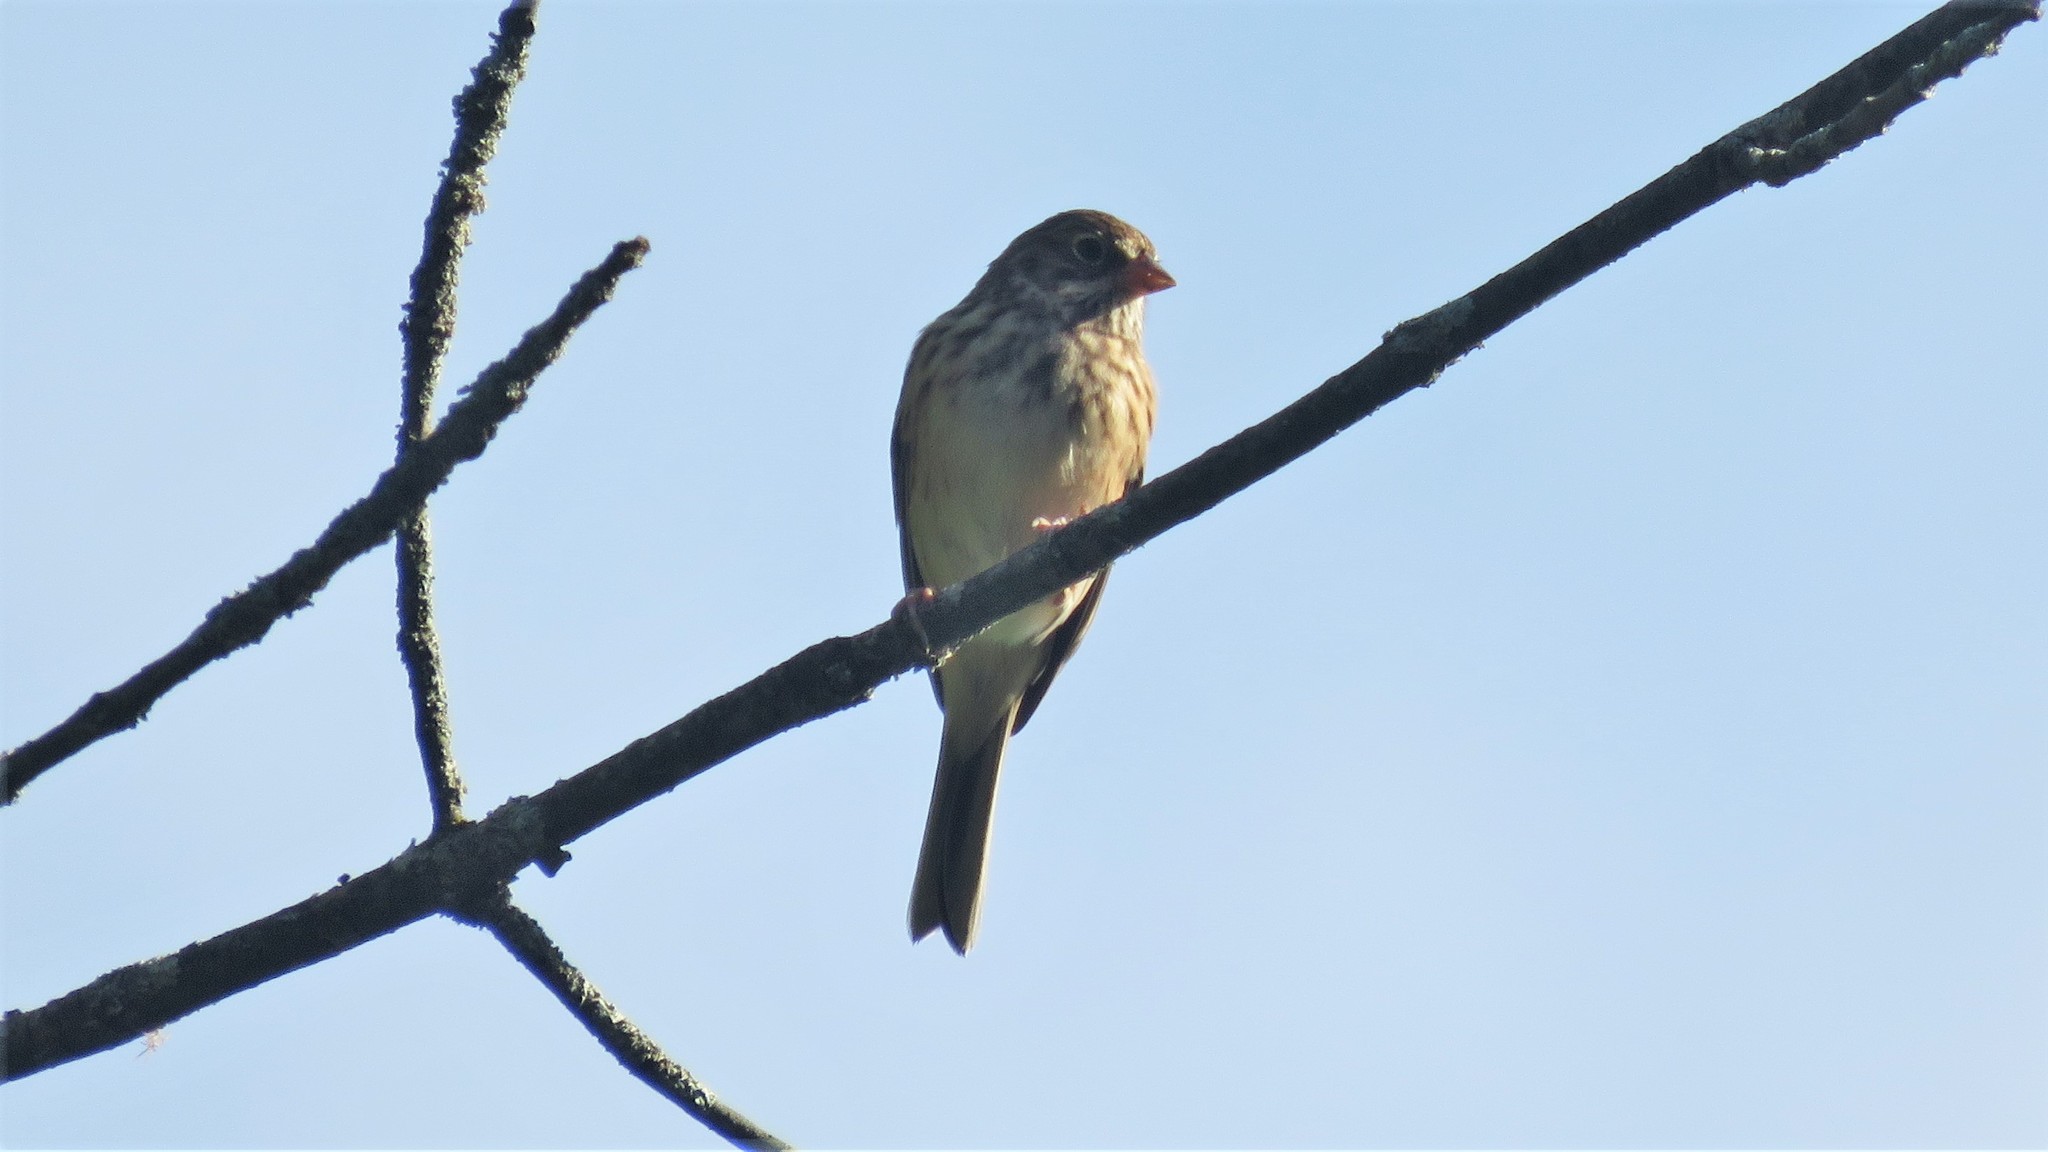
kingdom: Animalia
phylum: Chordata
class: Aves
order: Passeriformes
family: Passerellidae
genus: Pooecetes
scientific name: Pooecetes gramineus
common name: Vesper sparrow
